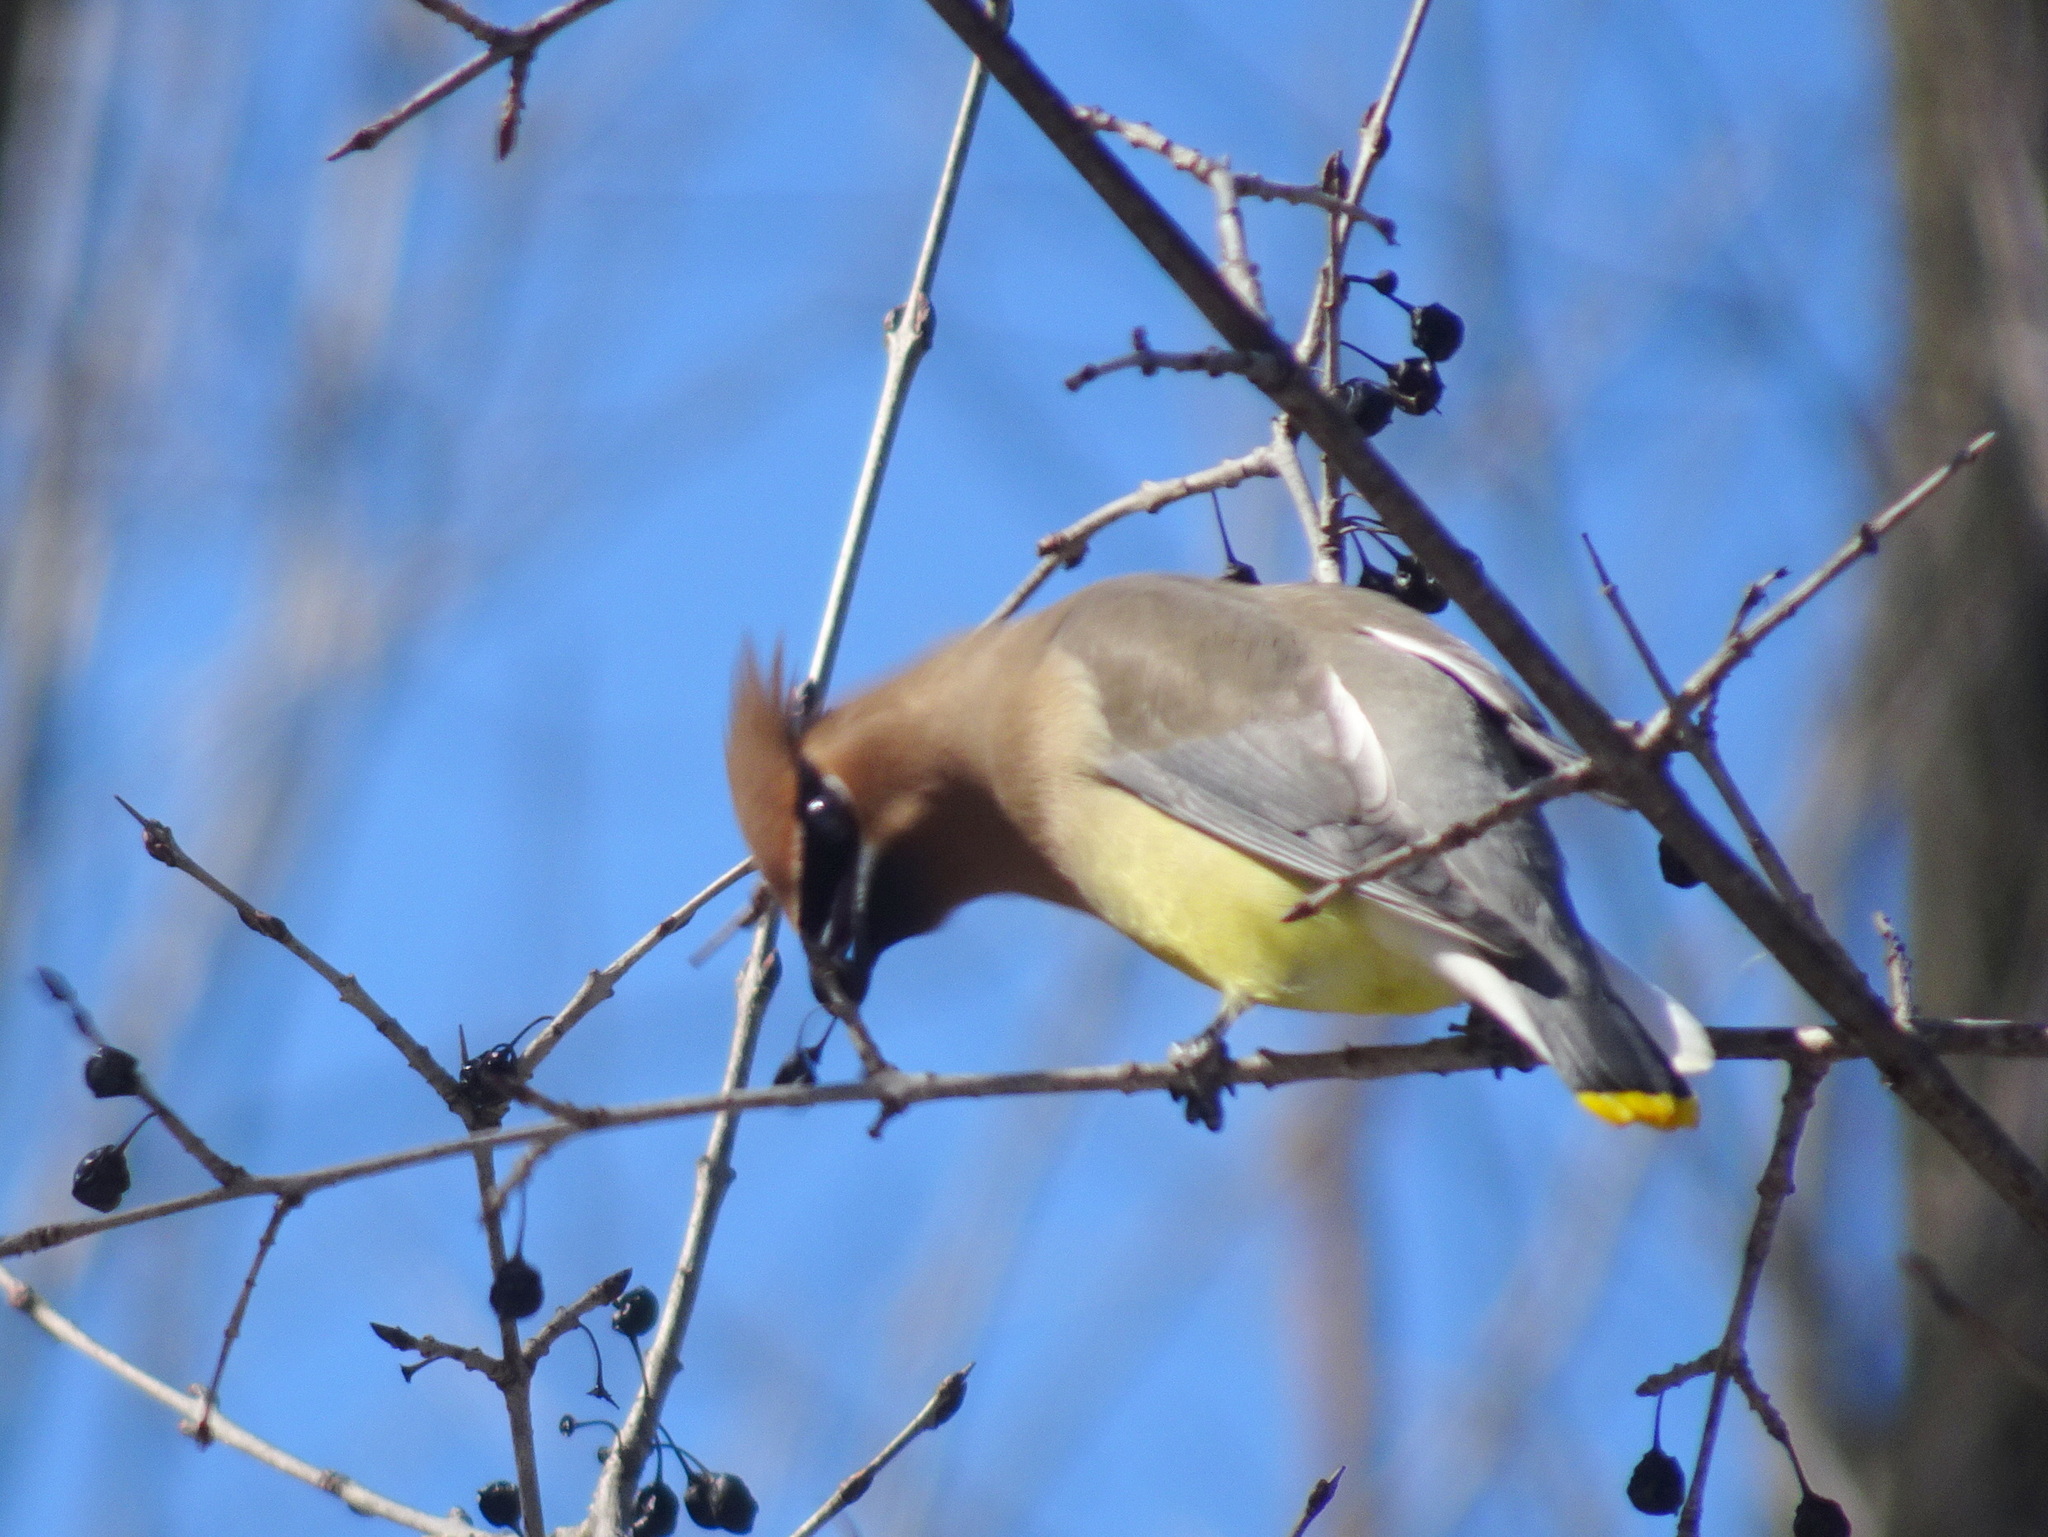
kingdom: Animalia
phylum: Chordata
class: Aves
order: Passeriformes
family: Bombycillidae
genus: Bombycilla
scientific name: Bombycilla cedrorum
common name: Cedar waxwing
